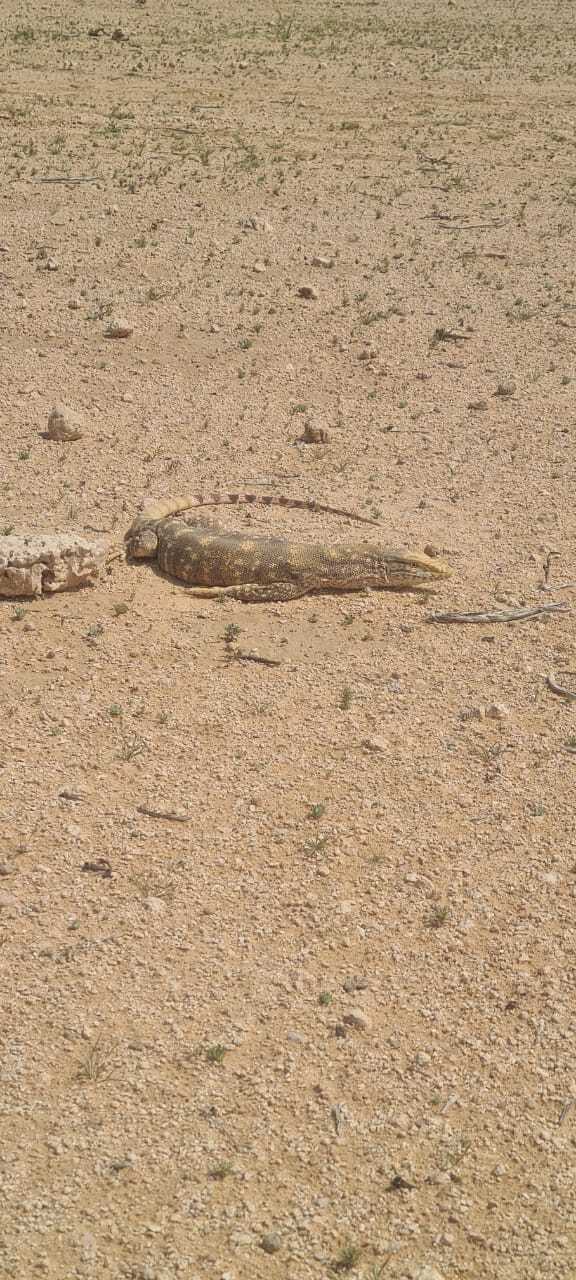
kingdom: Animalia
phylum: Chordata
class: Squamata
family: Varanidae
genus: Varanus
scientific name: Varanus griseus
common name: Desert monitor
